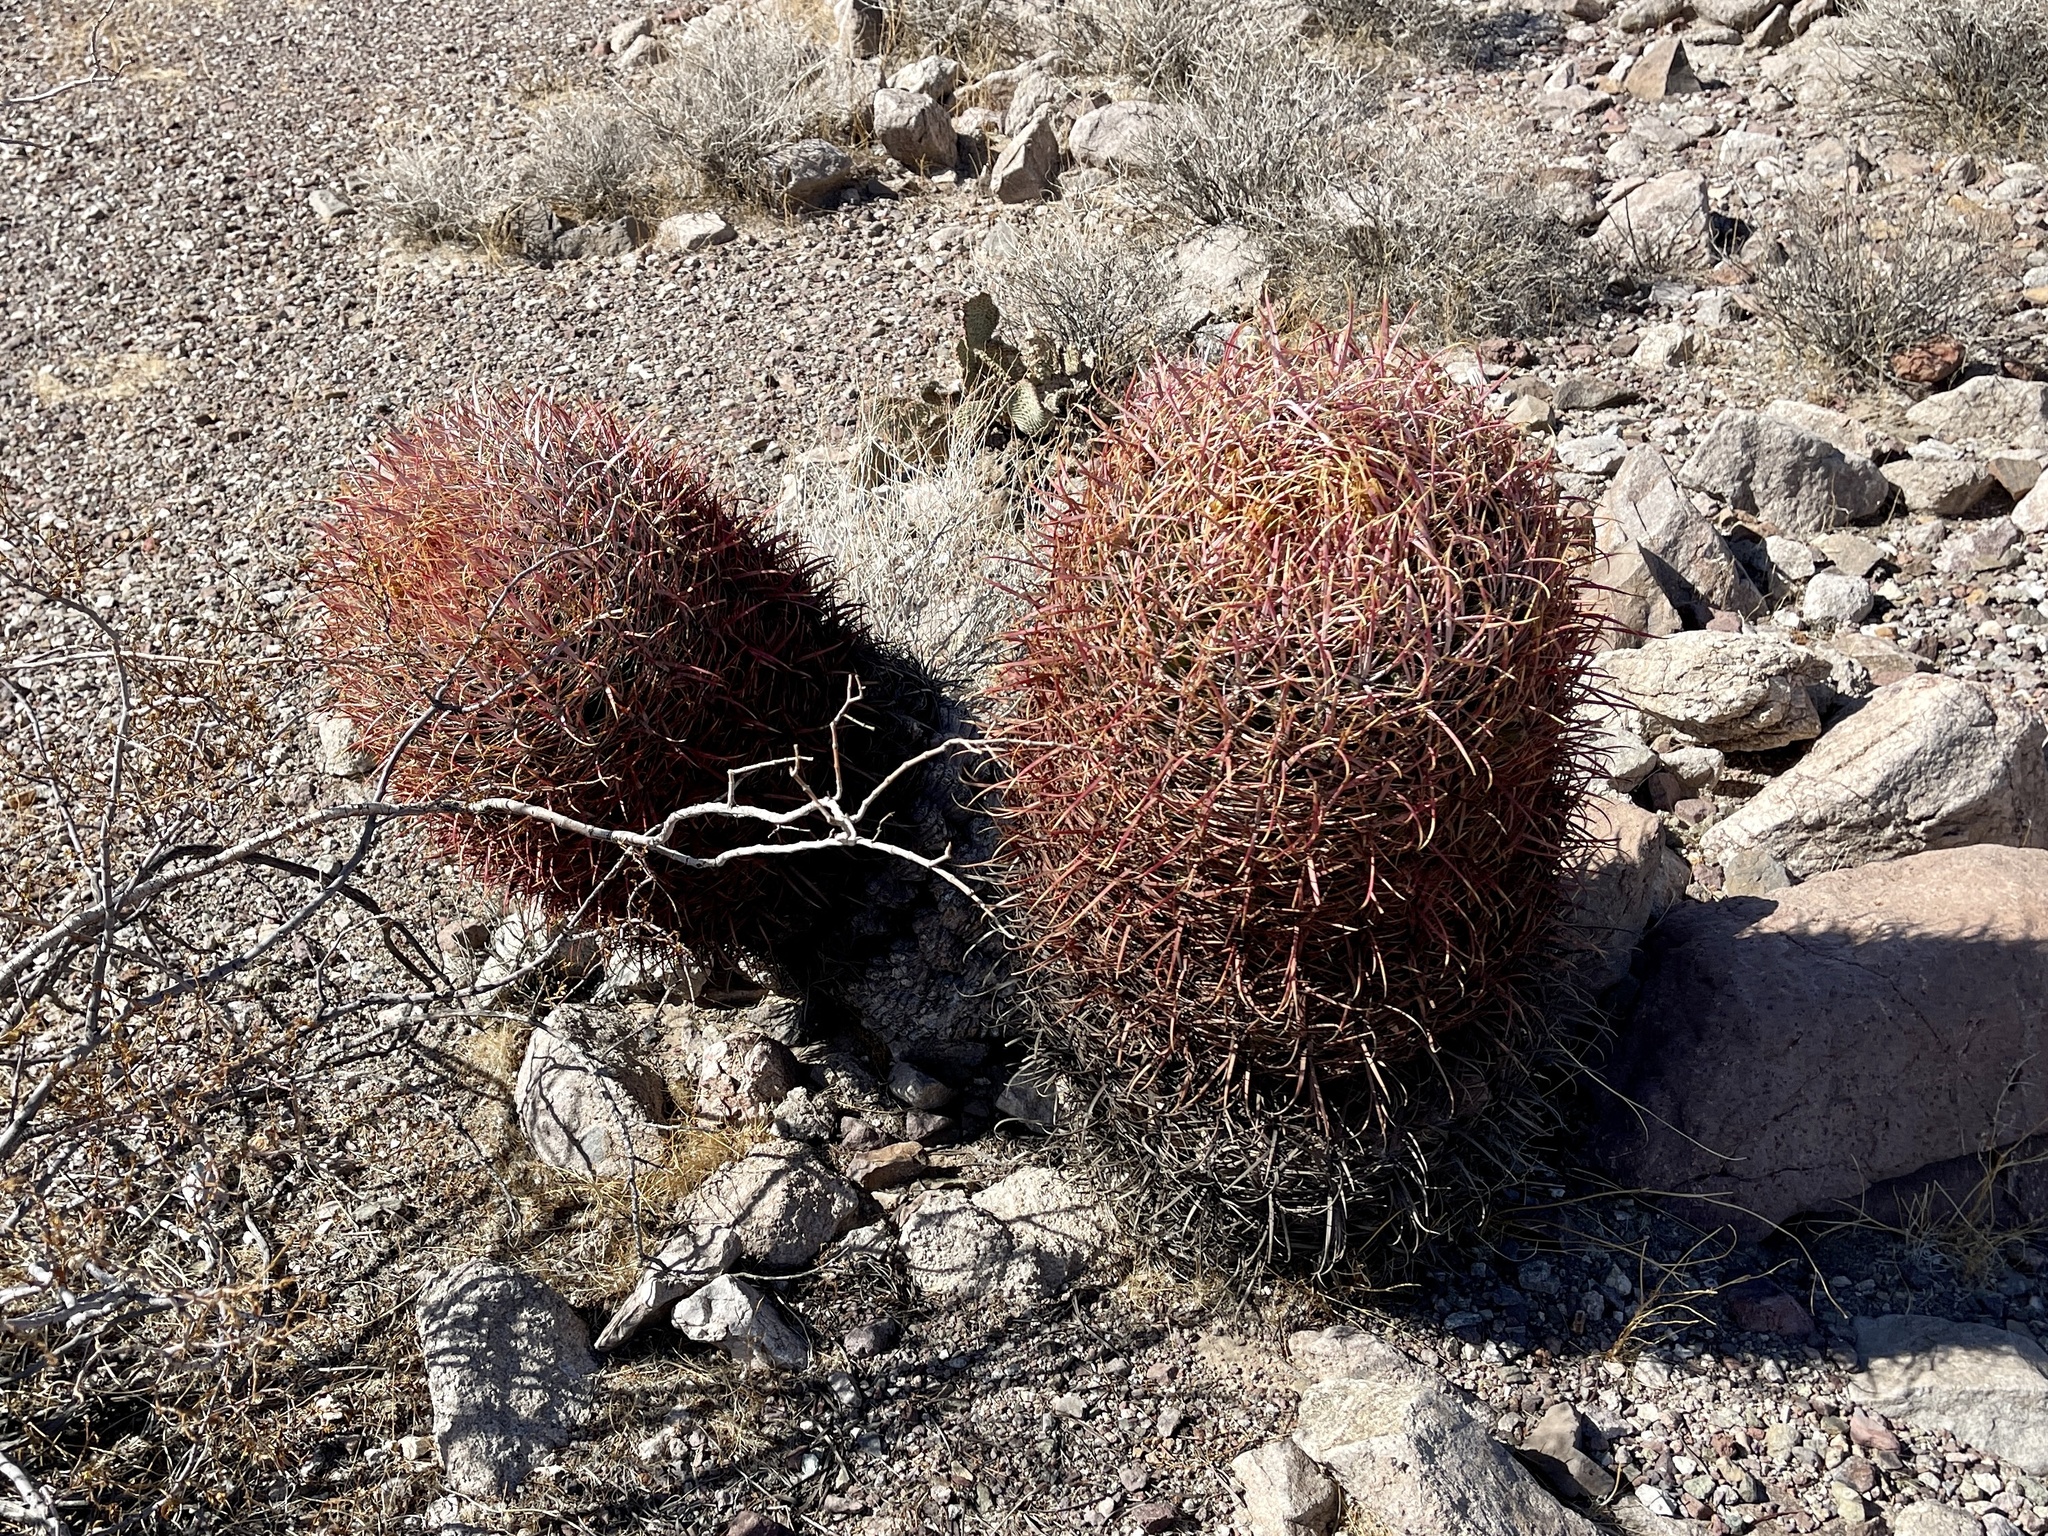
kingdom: Plantae
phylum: Tracheophyta
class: Magnoliopsida
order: Caryophyllales
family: Cactaceae
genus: Ferocactus
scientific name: Ferocactus cylindraceus
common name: California barrel cactus
